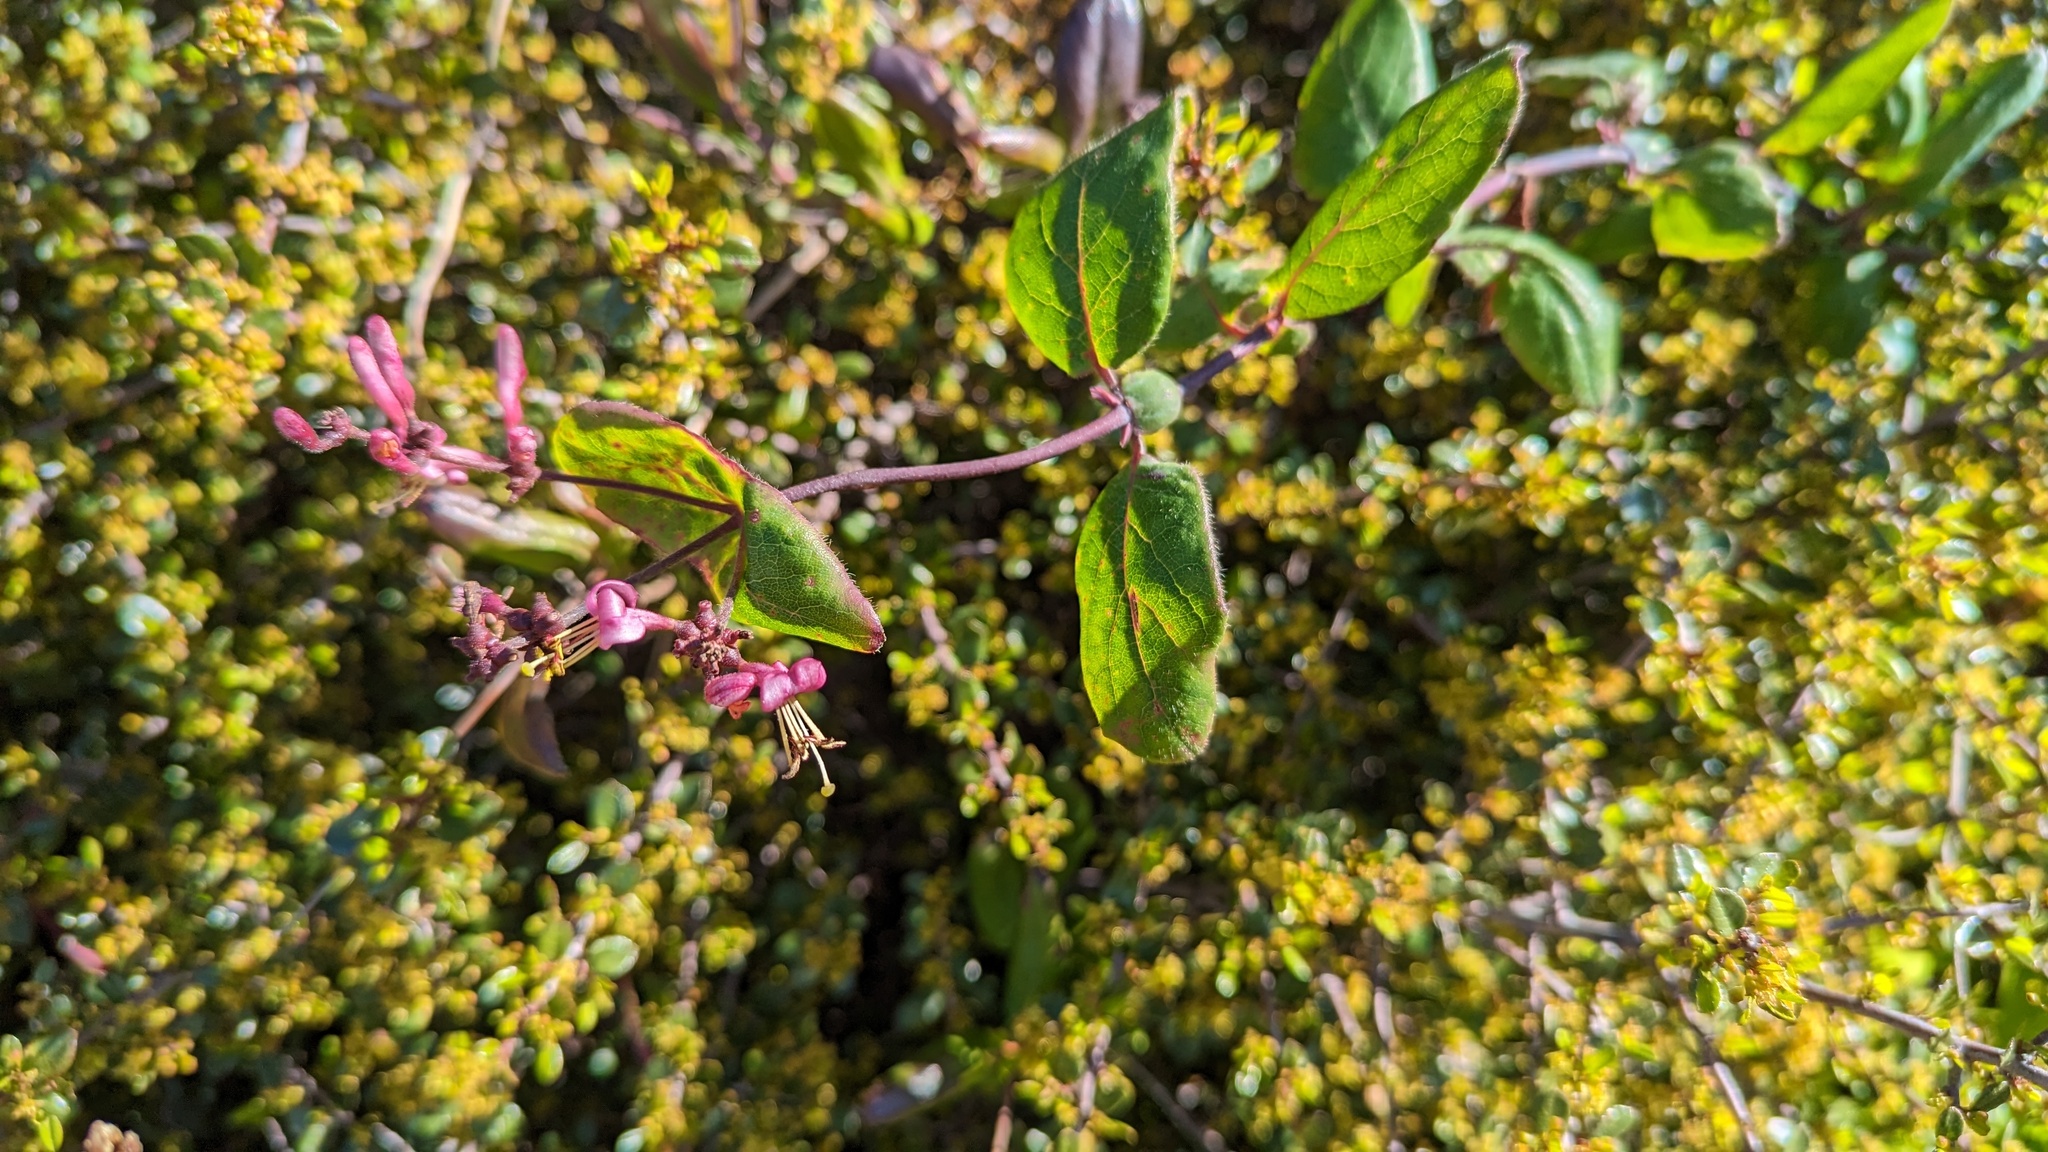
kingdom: Plantae
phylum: Tracheophyta
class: Magnoliopsida
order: Dipsacales
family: Caprifoliaceae
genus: Lonicera
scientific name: Lonicera hispidula
